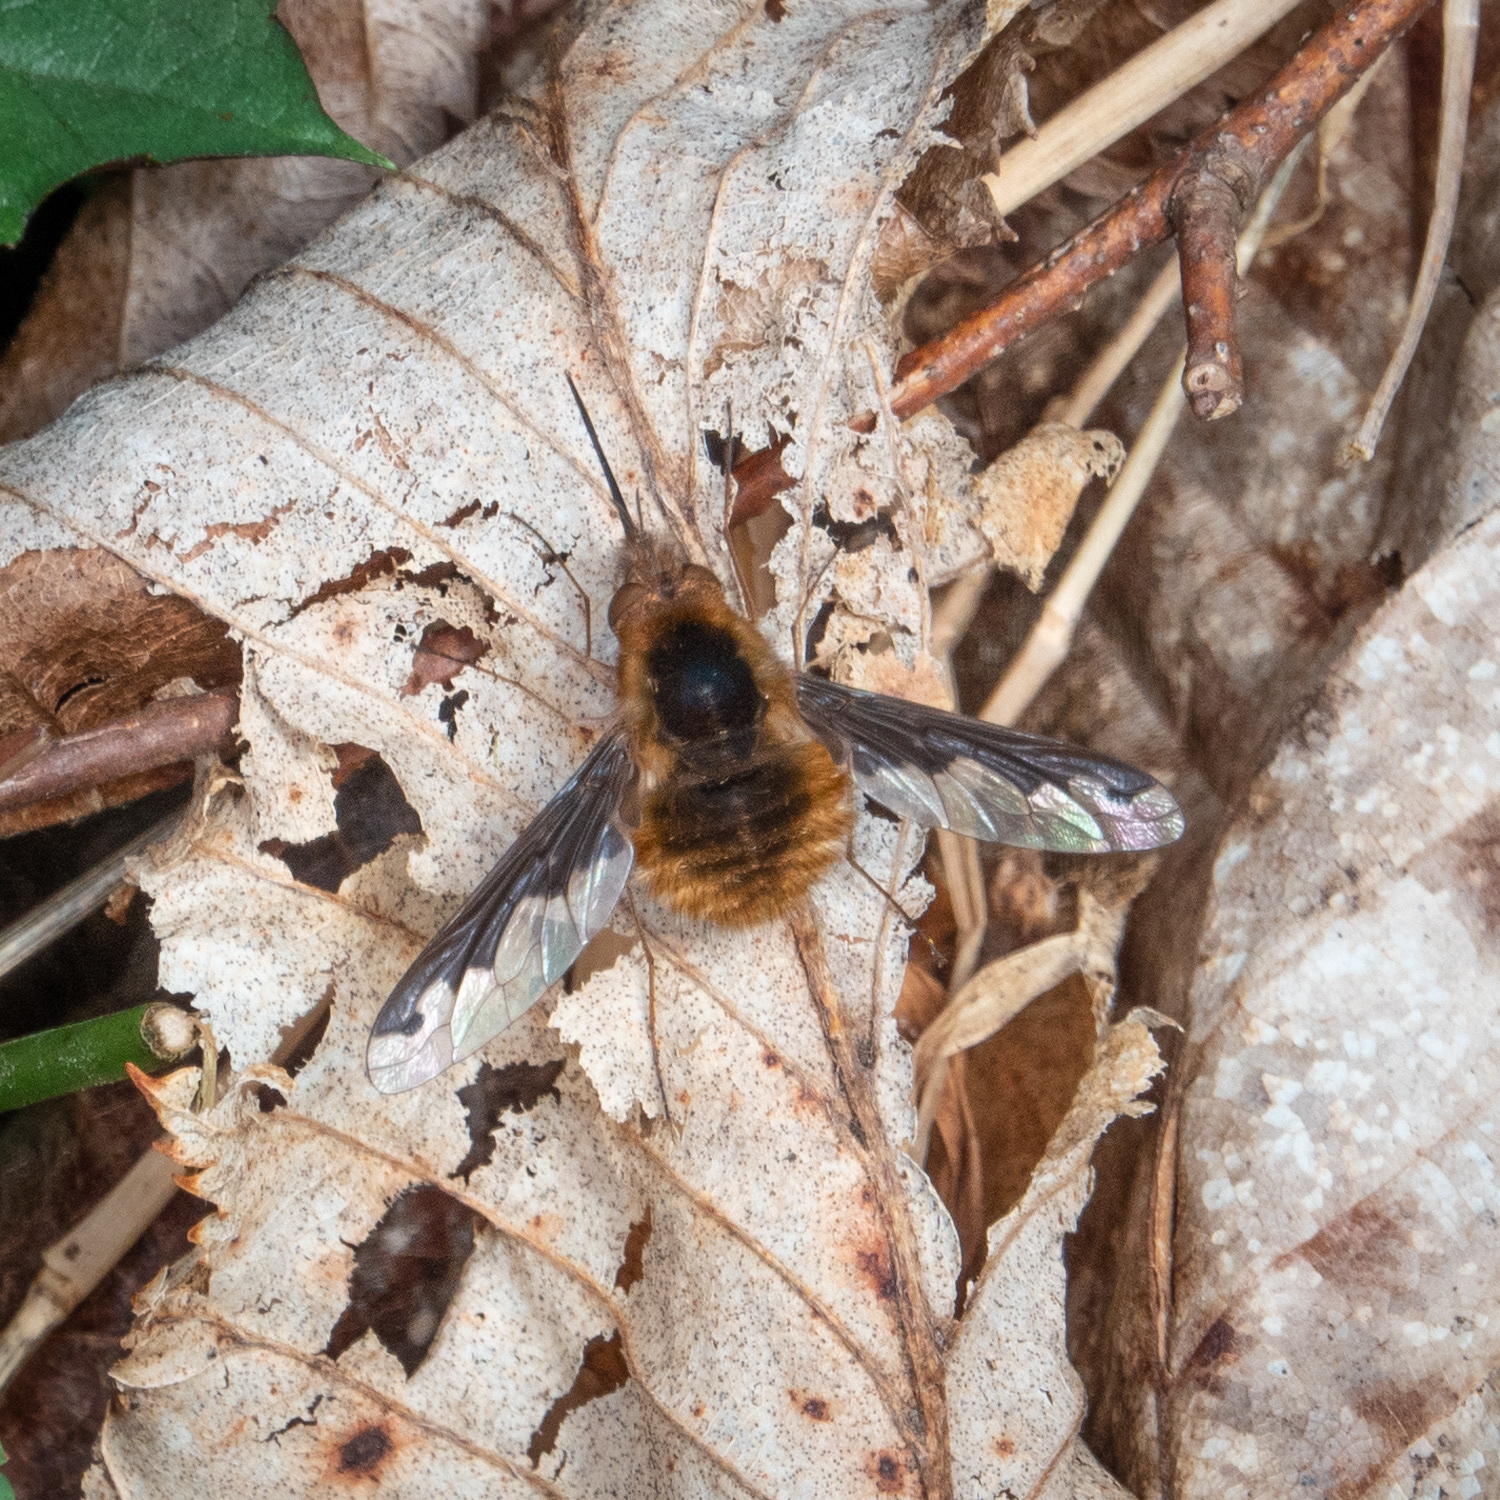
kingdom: Animalia
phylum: Arthropoda
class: Insecta
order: Diptera
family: Bombyliidae
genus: Bombylius
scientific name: Bombylius major
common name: Bee fly
